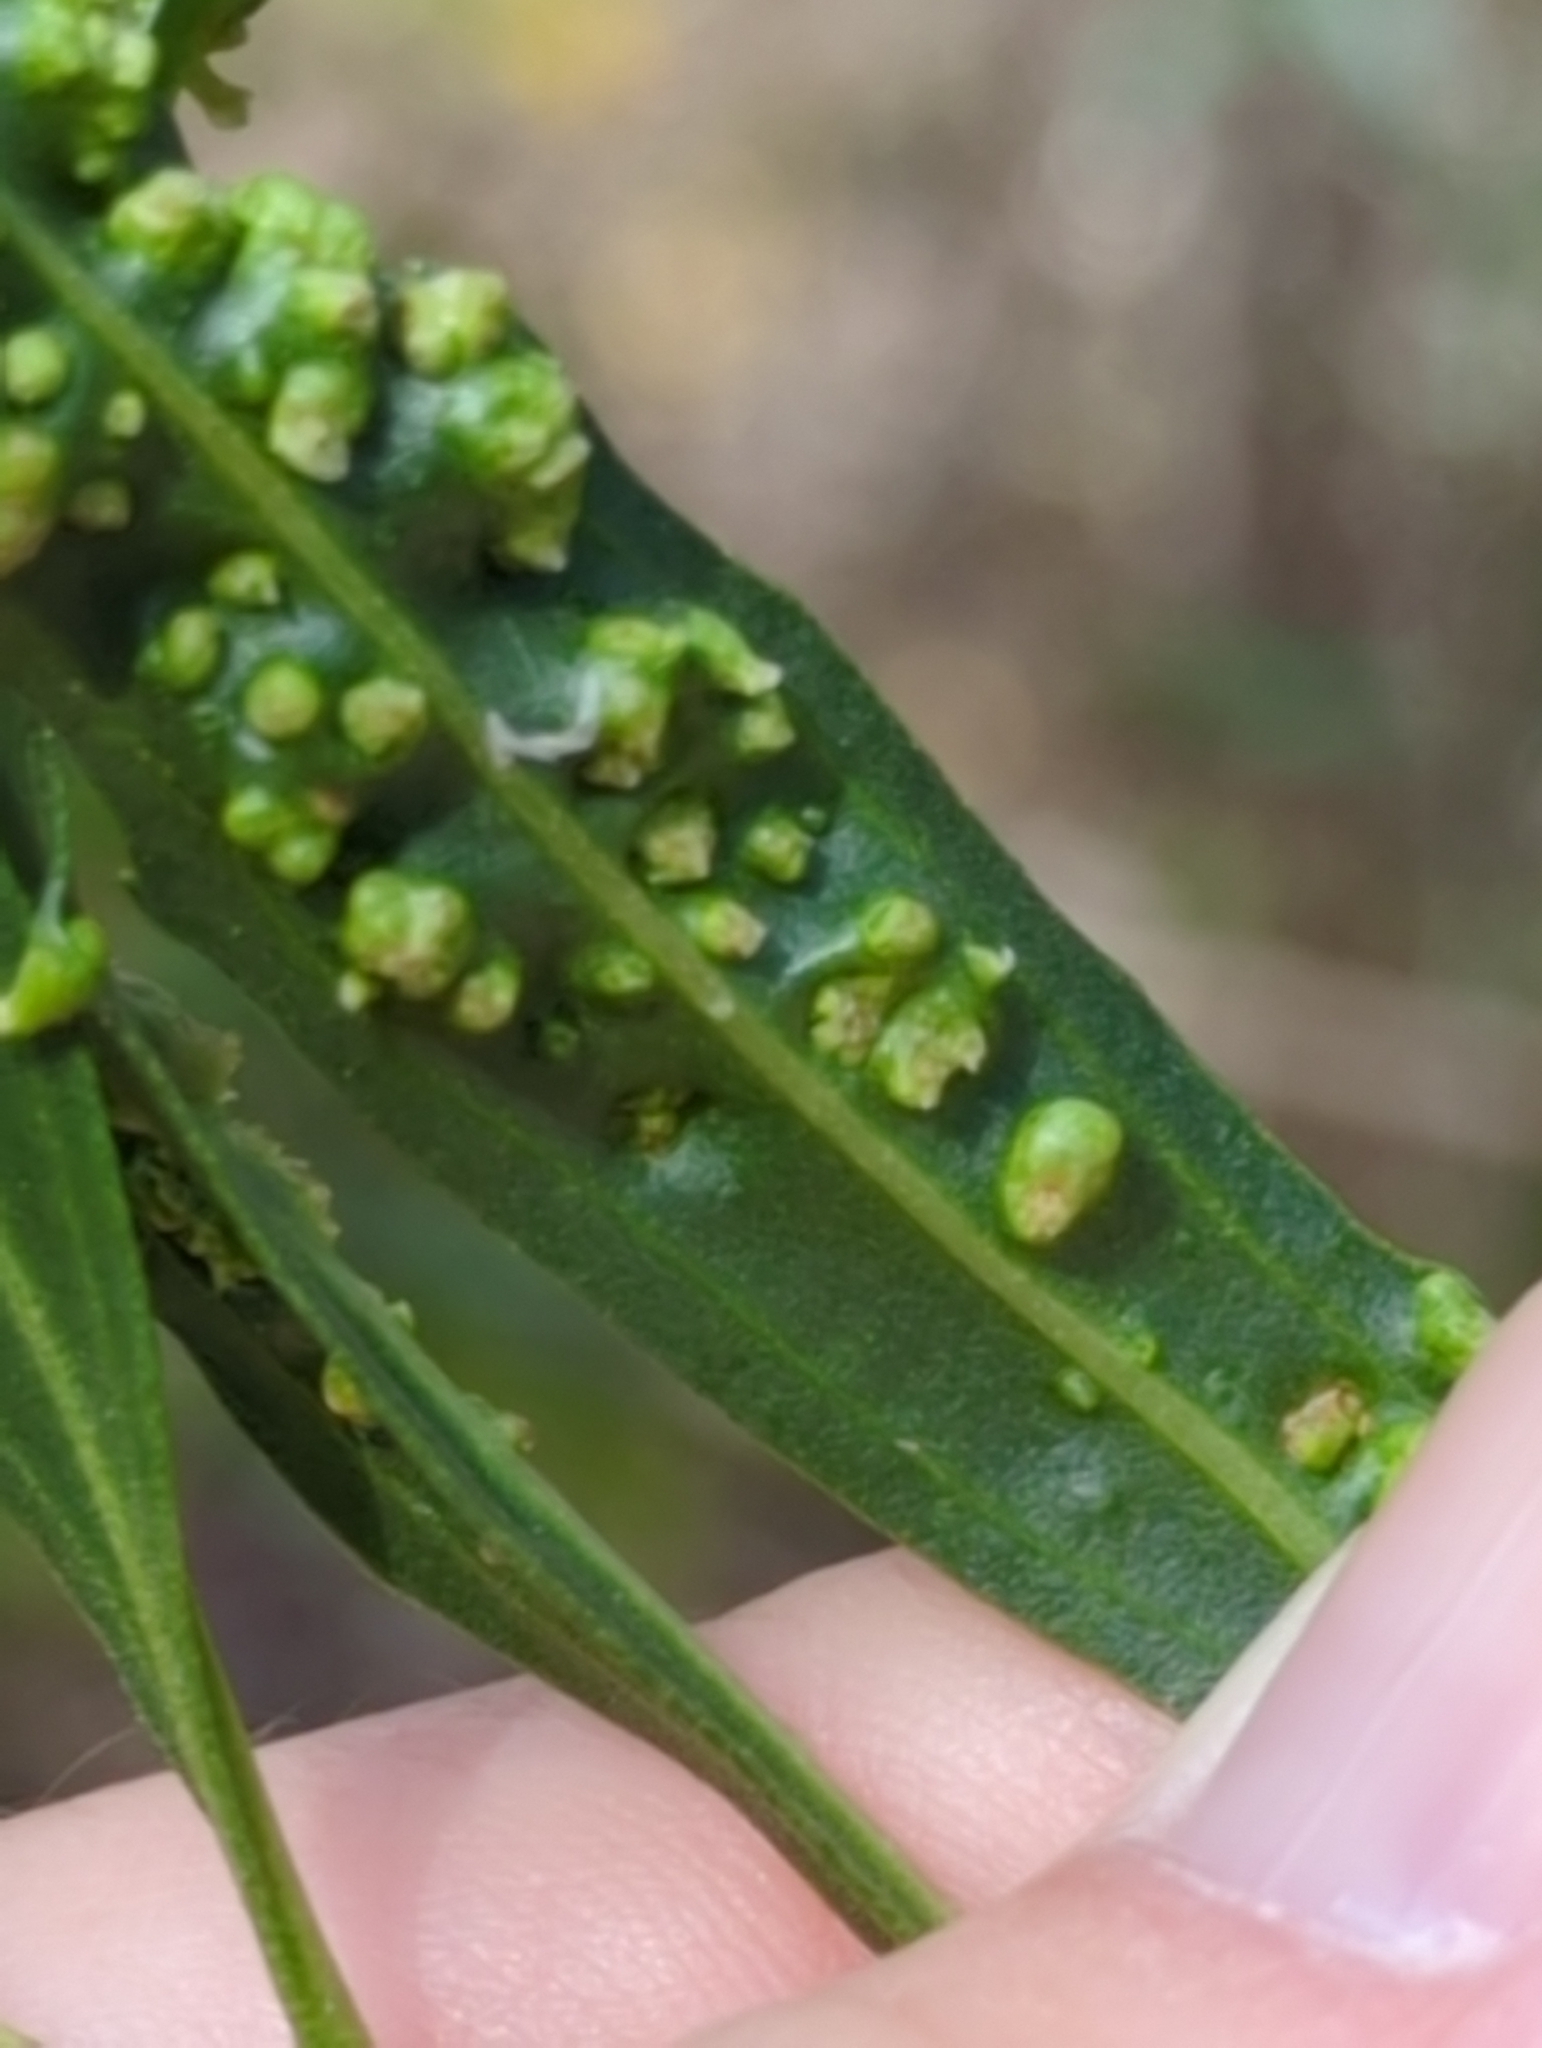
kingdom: Animalia
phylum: Arthropoda
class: Arachnida
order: Trombidiformes
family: Eriophyidae
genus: Aceria
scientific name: Aceria
